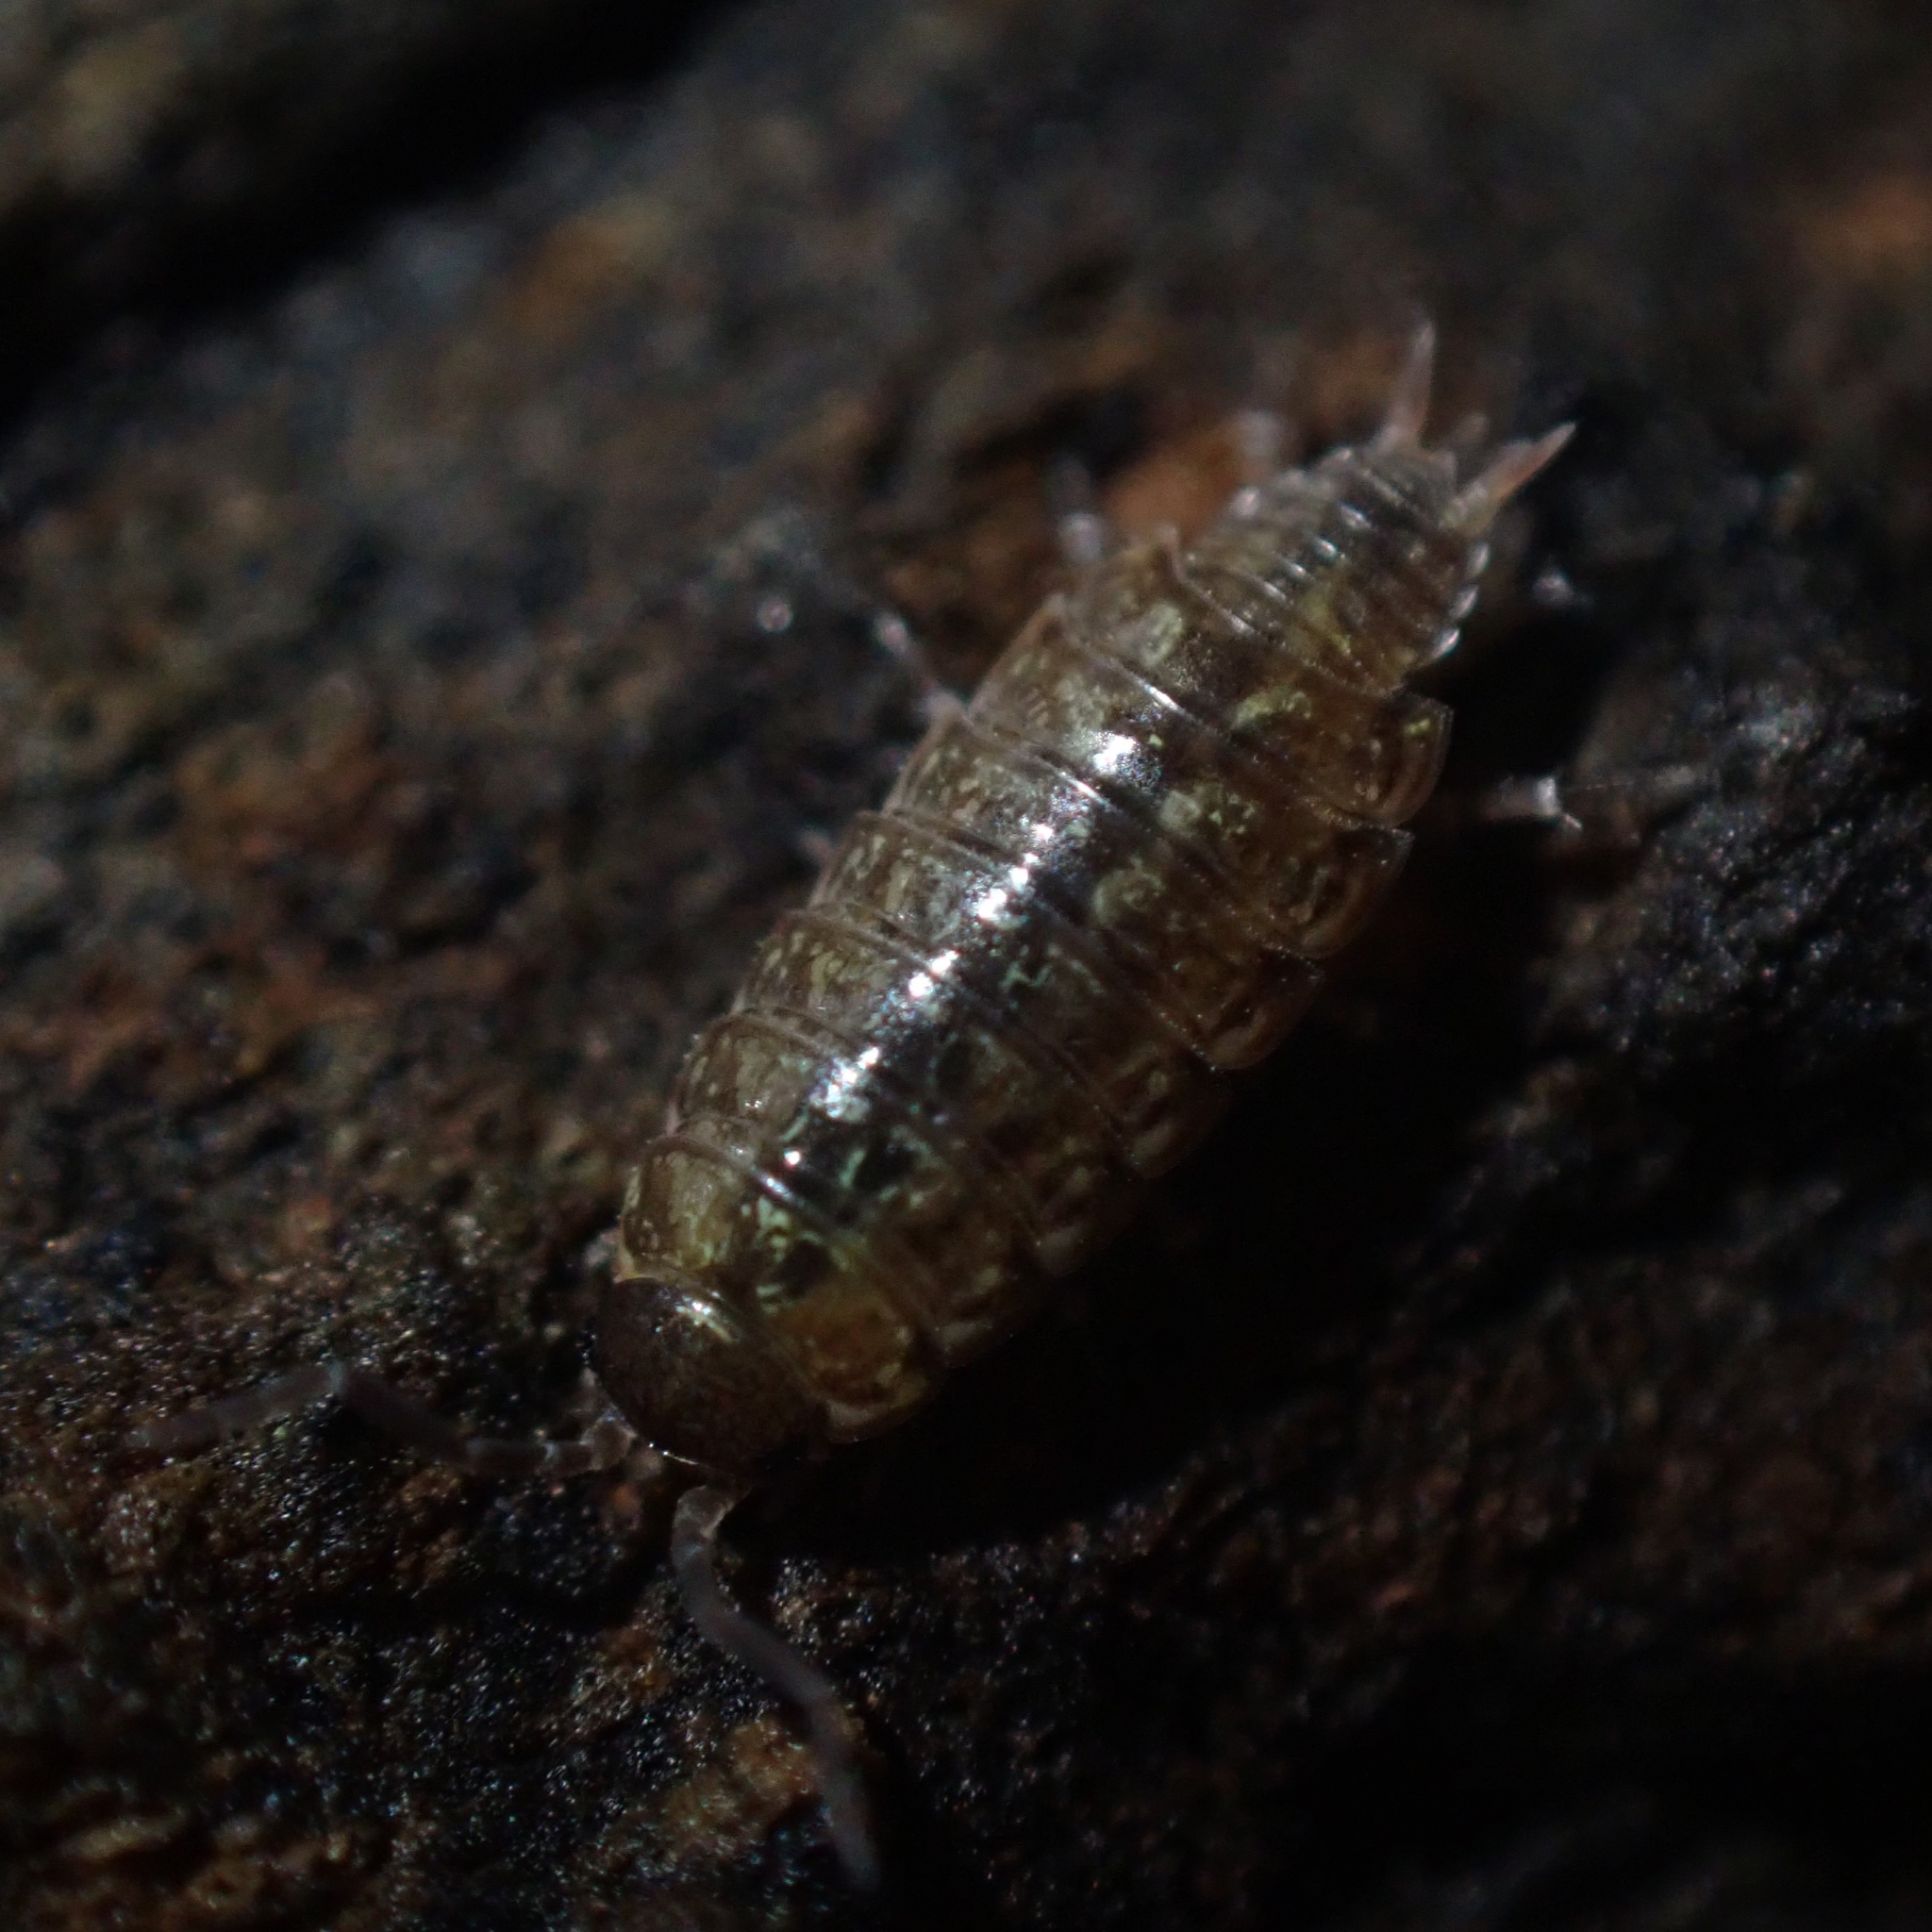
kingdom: Animalia
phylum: Arthropoda
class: Malacostraca
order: Isopoda
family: Philosciidae
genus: Philoscia
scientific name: Philoscia muscorum
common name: Common striped woodlouse
